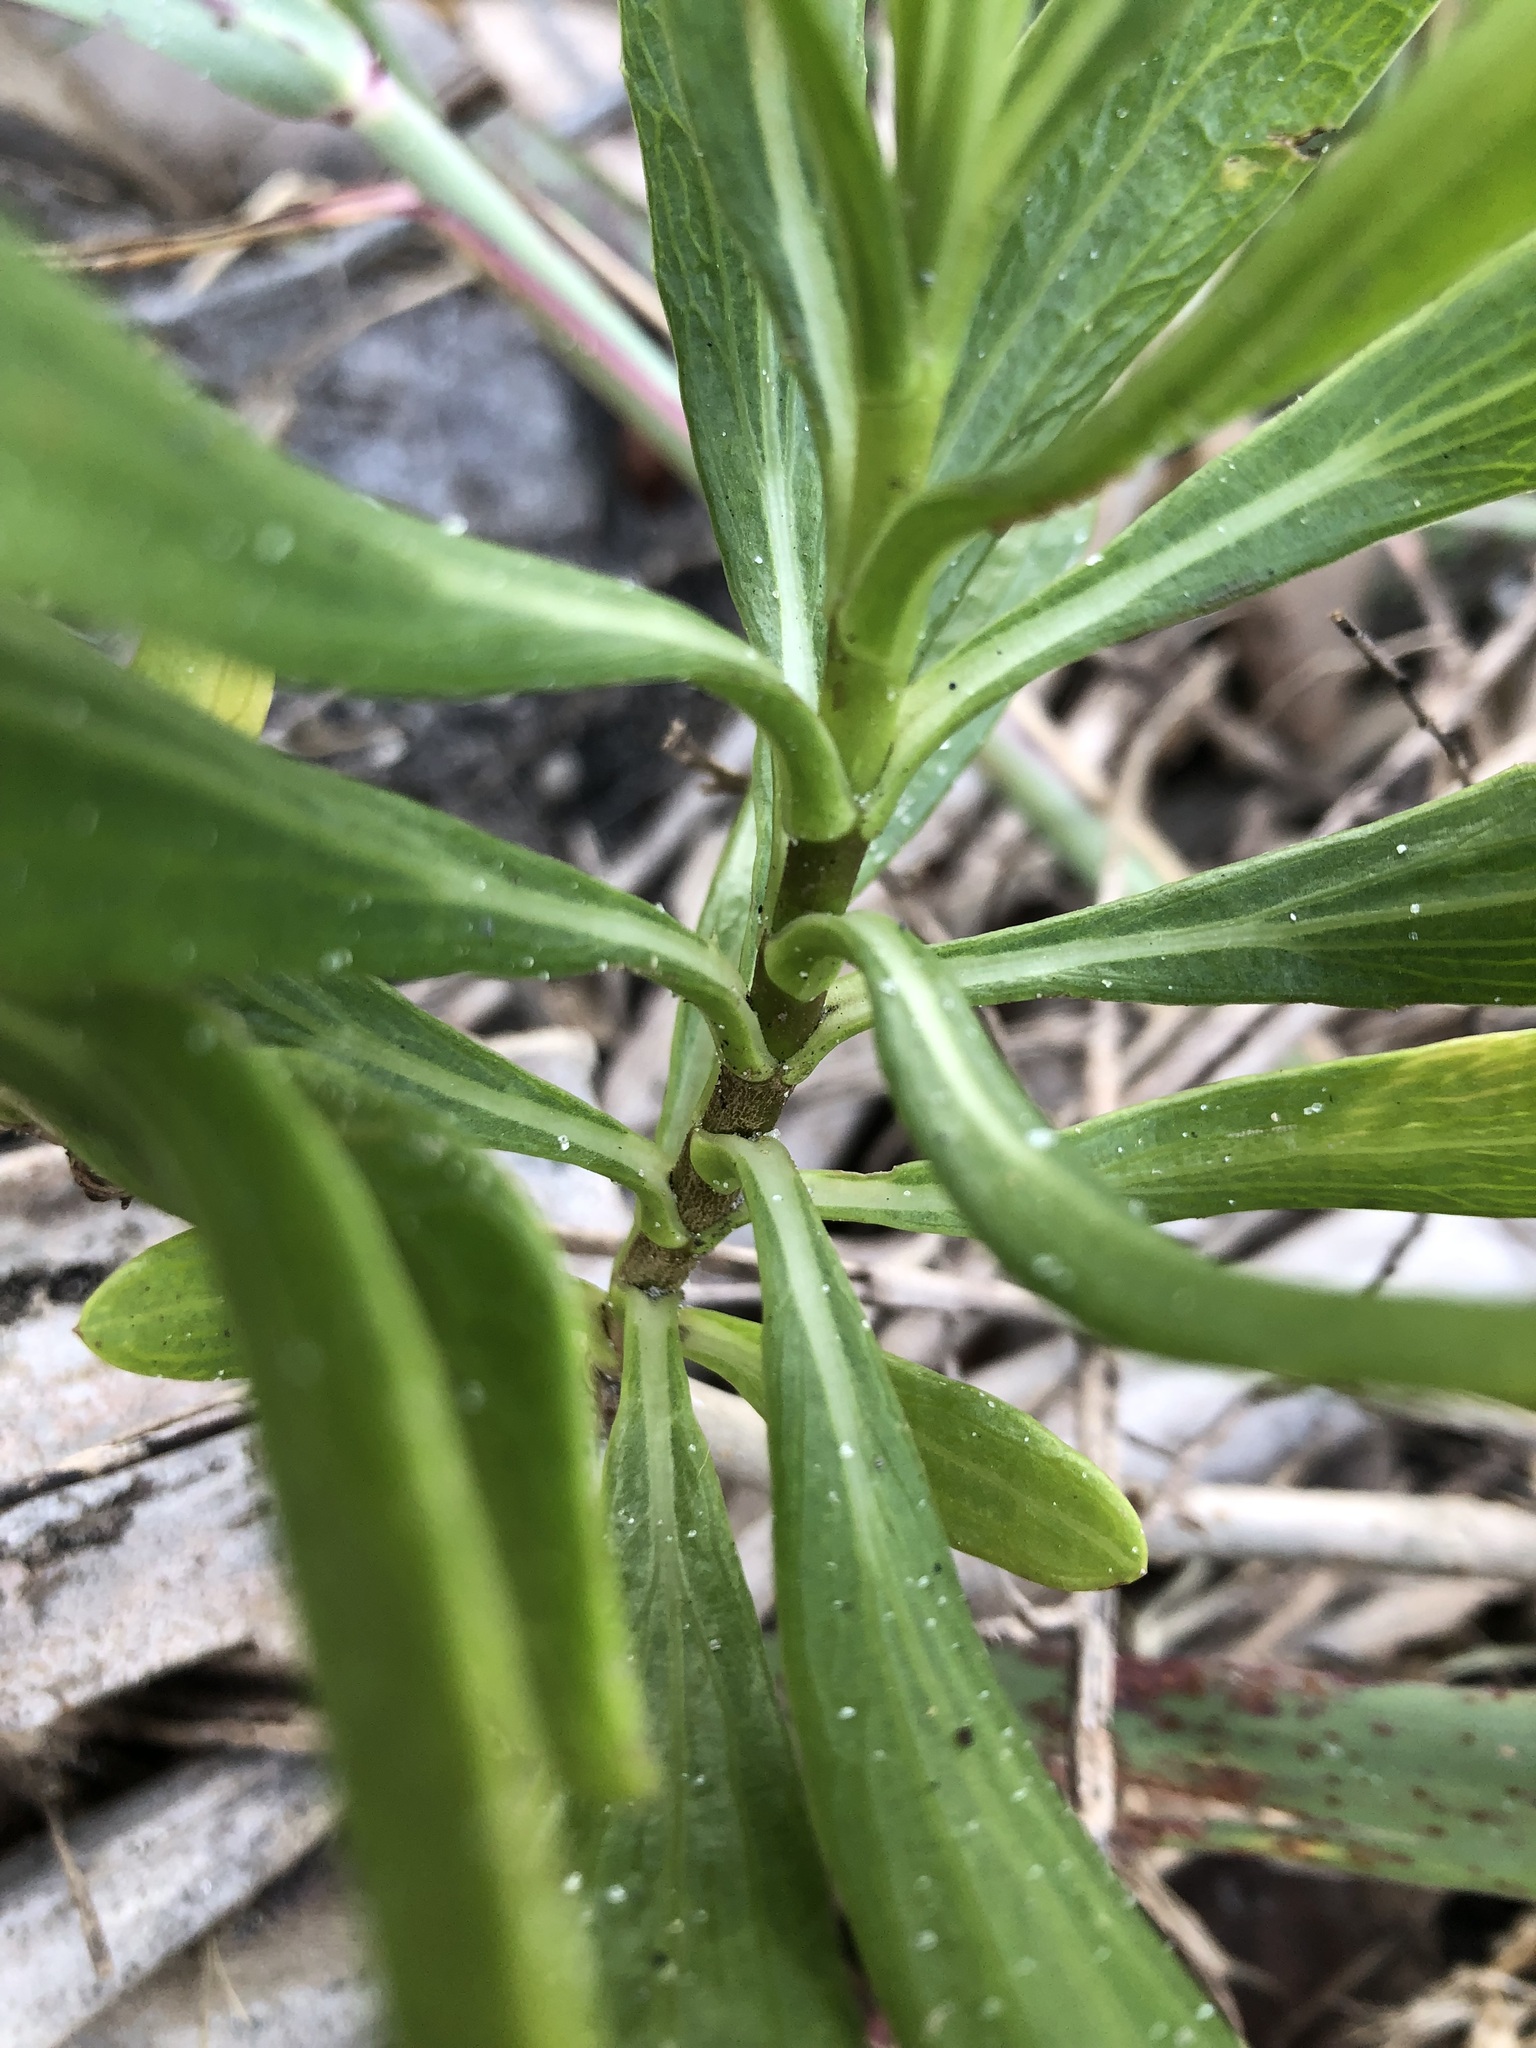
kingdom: Plantae
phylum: Tracheophyta
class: Magnoliopsida
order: Asterales
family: Asteraceae
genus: Borrichia
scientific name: Borrichia frutescens
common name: Sea oxeye
